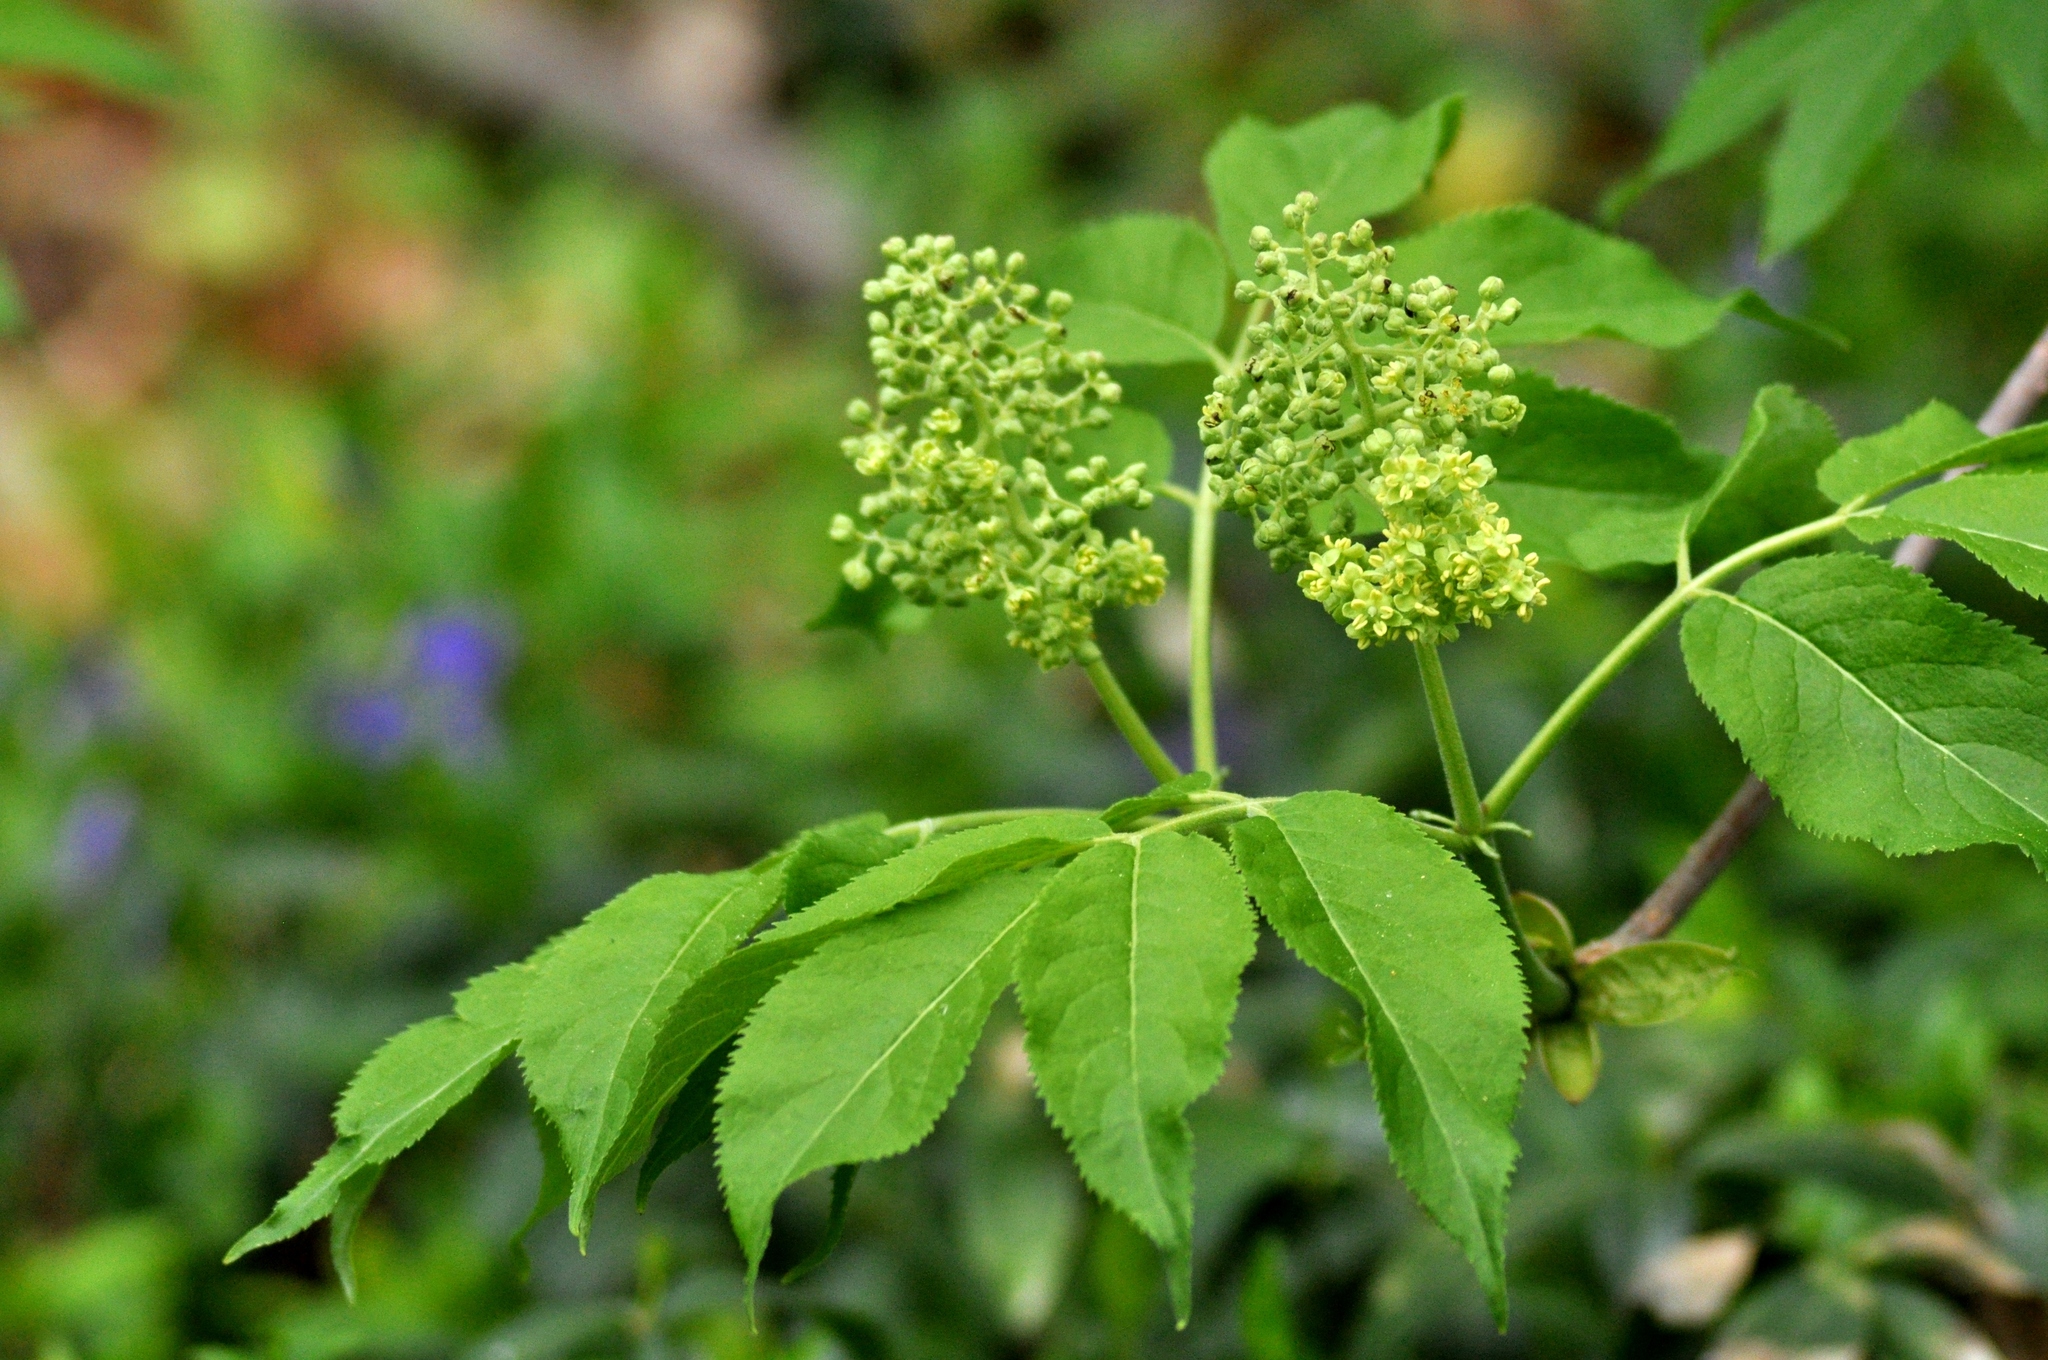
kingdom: Plantae
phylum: Tracheophyta
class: Magnoliopsida
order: Dipsacales
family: Viburnaceae
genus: Sambucus
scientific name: Sambucus racemosa
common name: Red-berried elder
